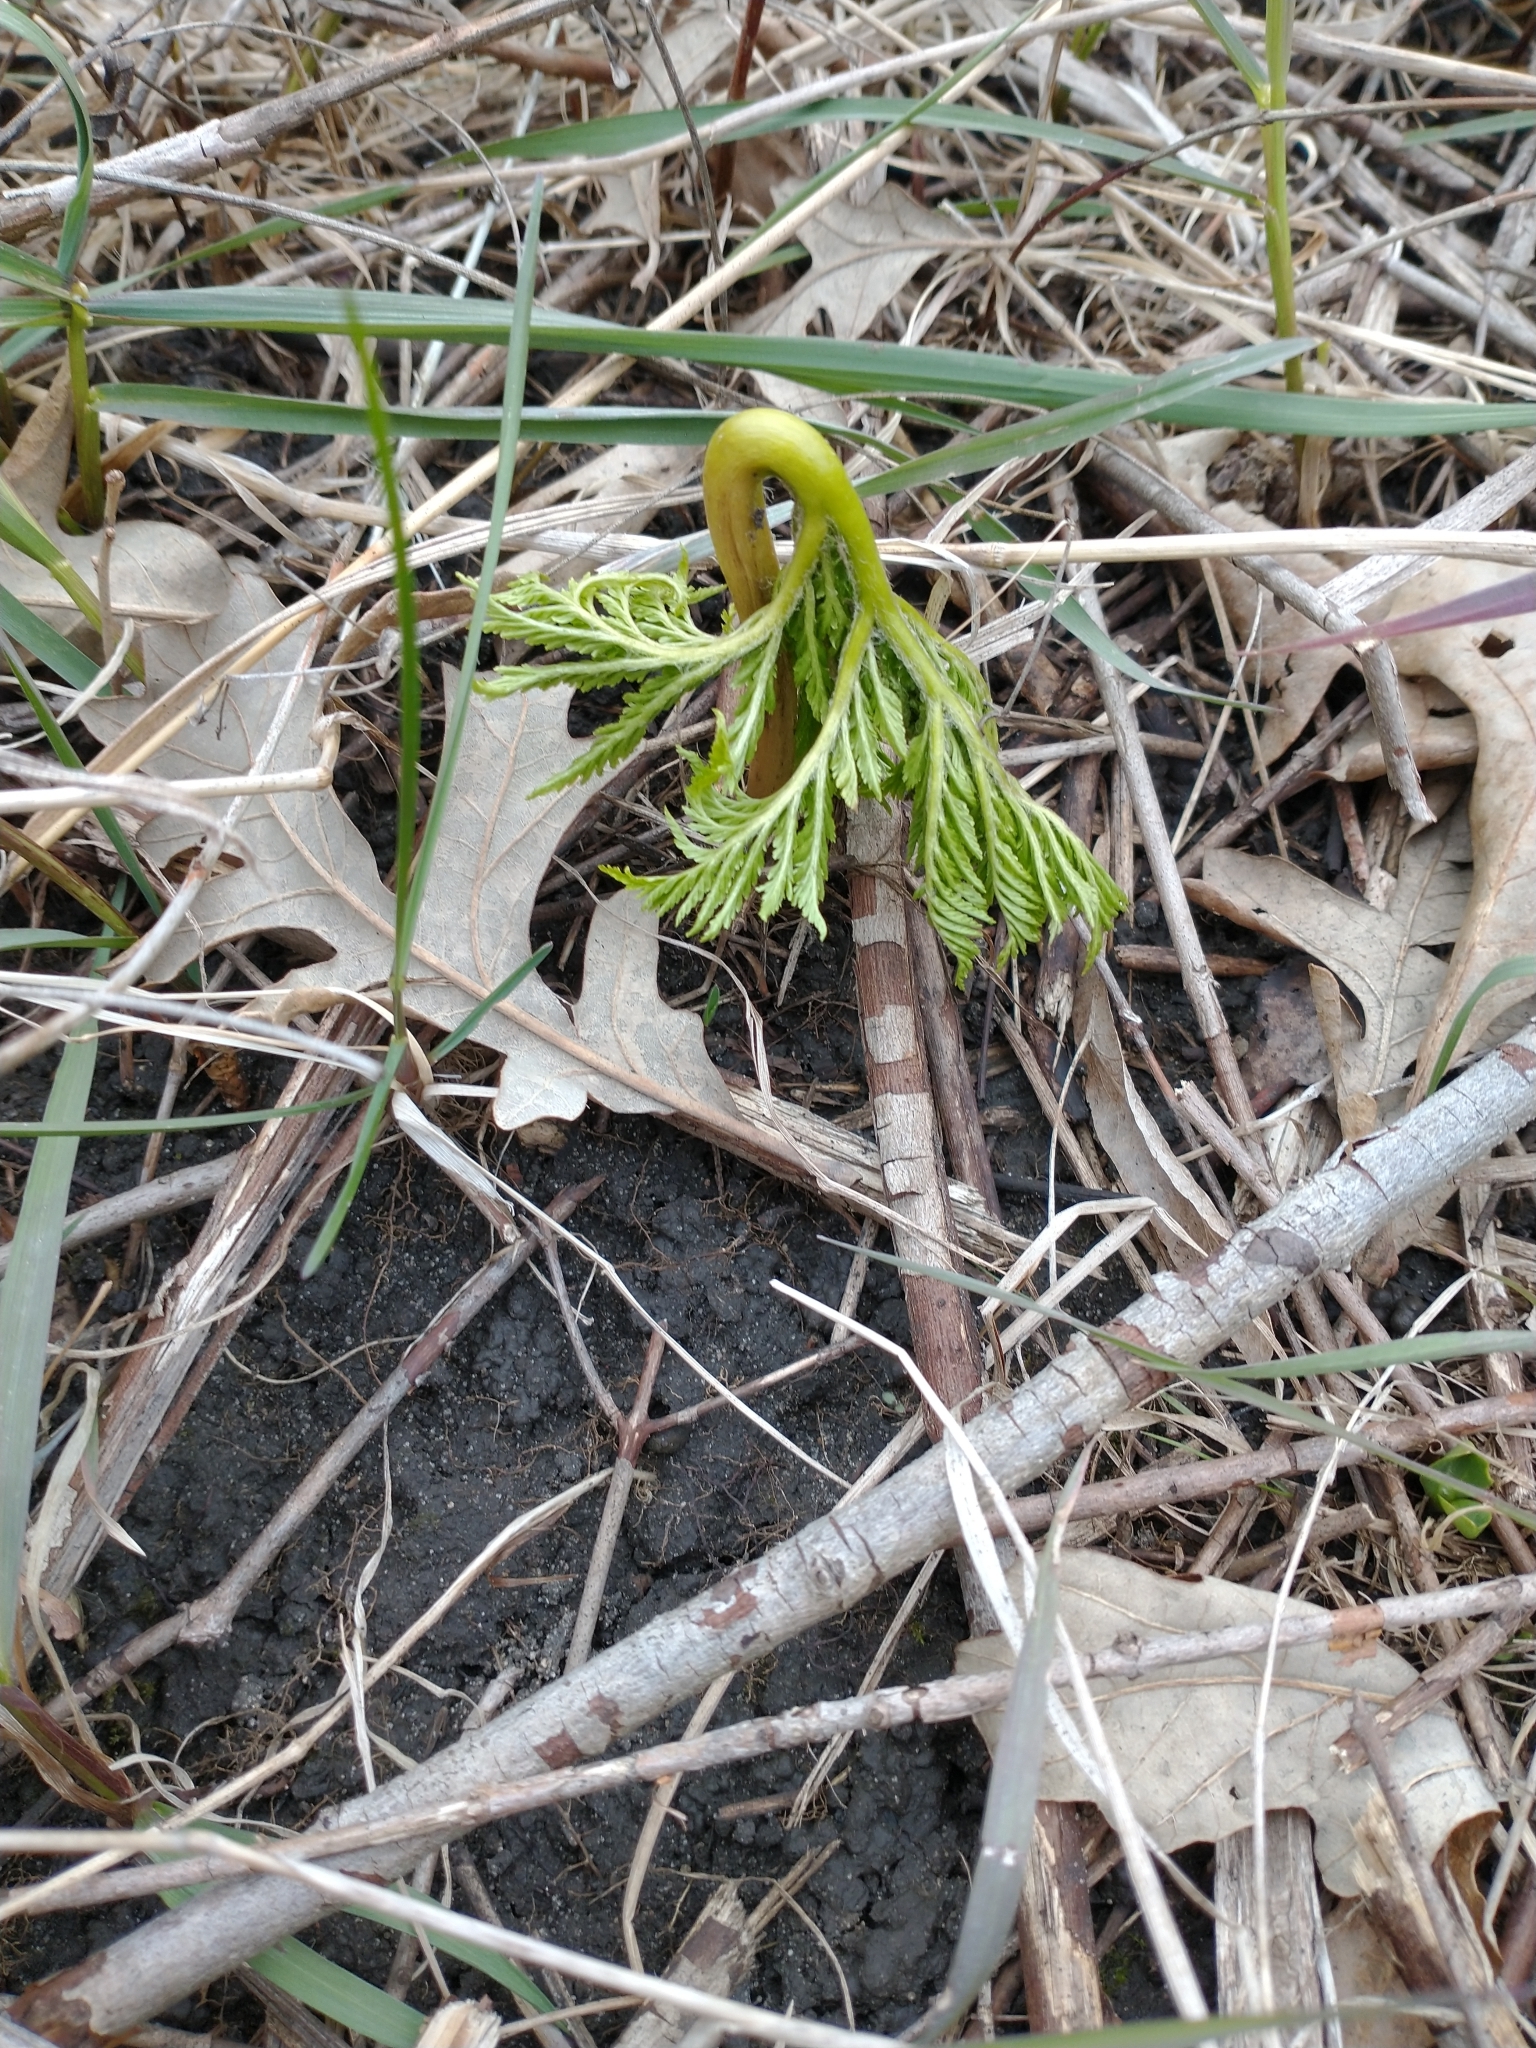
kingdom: Plantae
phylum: Tracheophyta
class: Polypodiopsida
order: Ophioglossales
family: Ophioglossaceae
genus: Botrypus
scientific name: Botrypus virginianus
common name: Common grapefern
